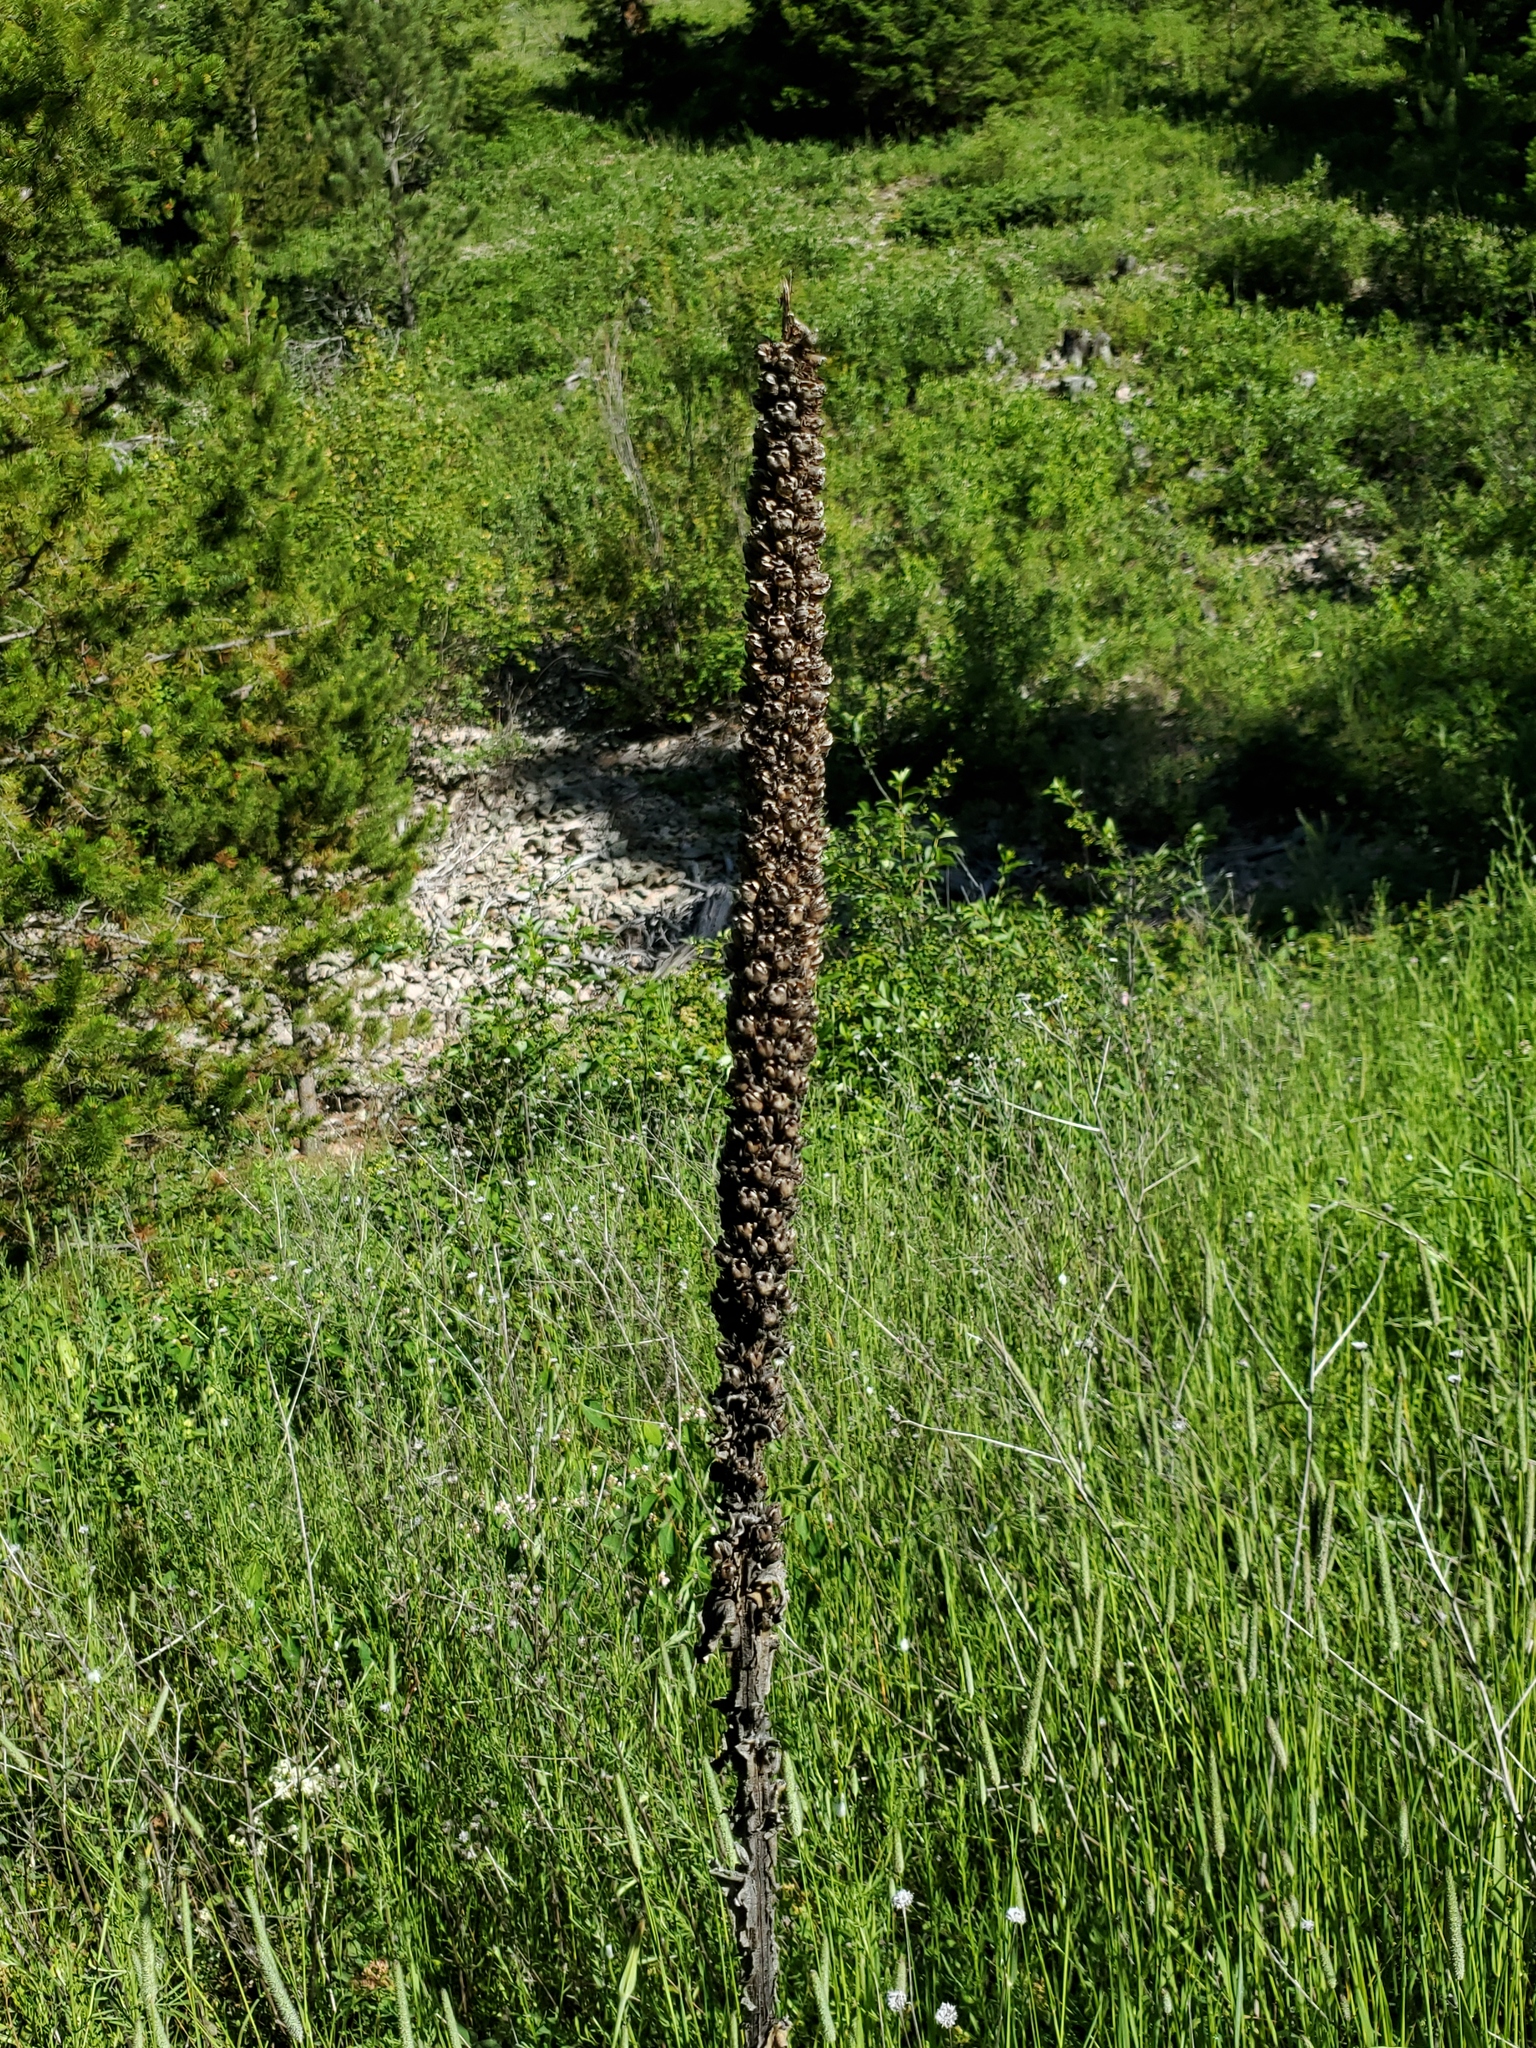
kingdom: Plantae
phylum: Tracheophyta
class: Magnoliopsida
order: Lamiales
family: Scrophulariaceae
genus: Verbascum
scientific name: Verbascum thapsus
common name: Common mullein
